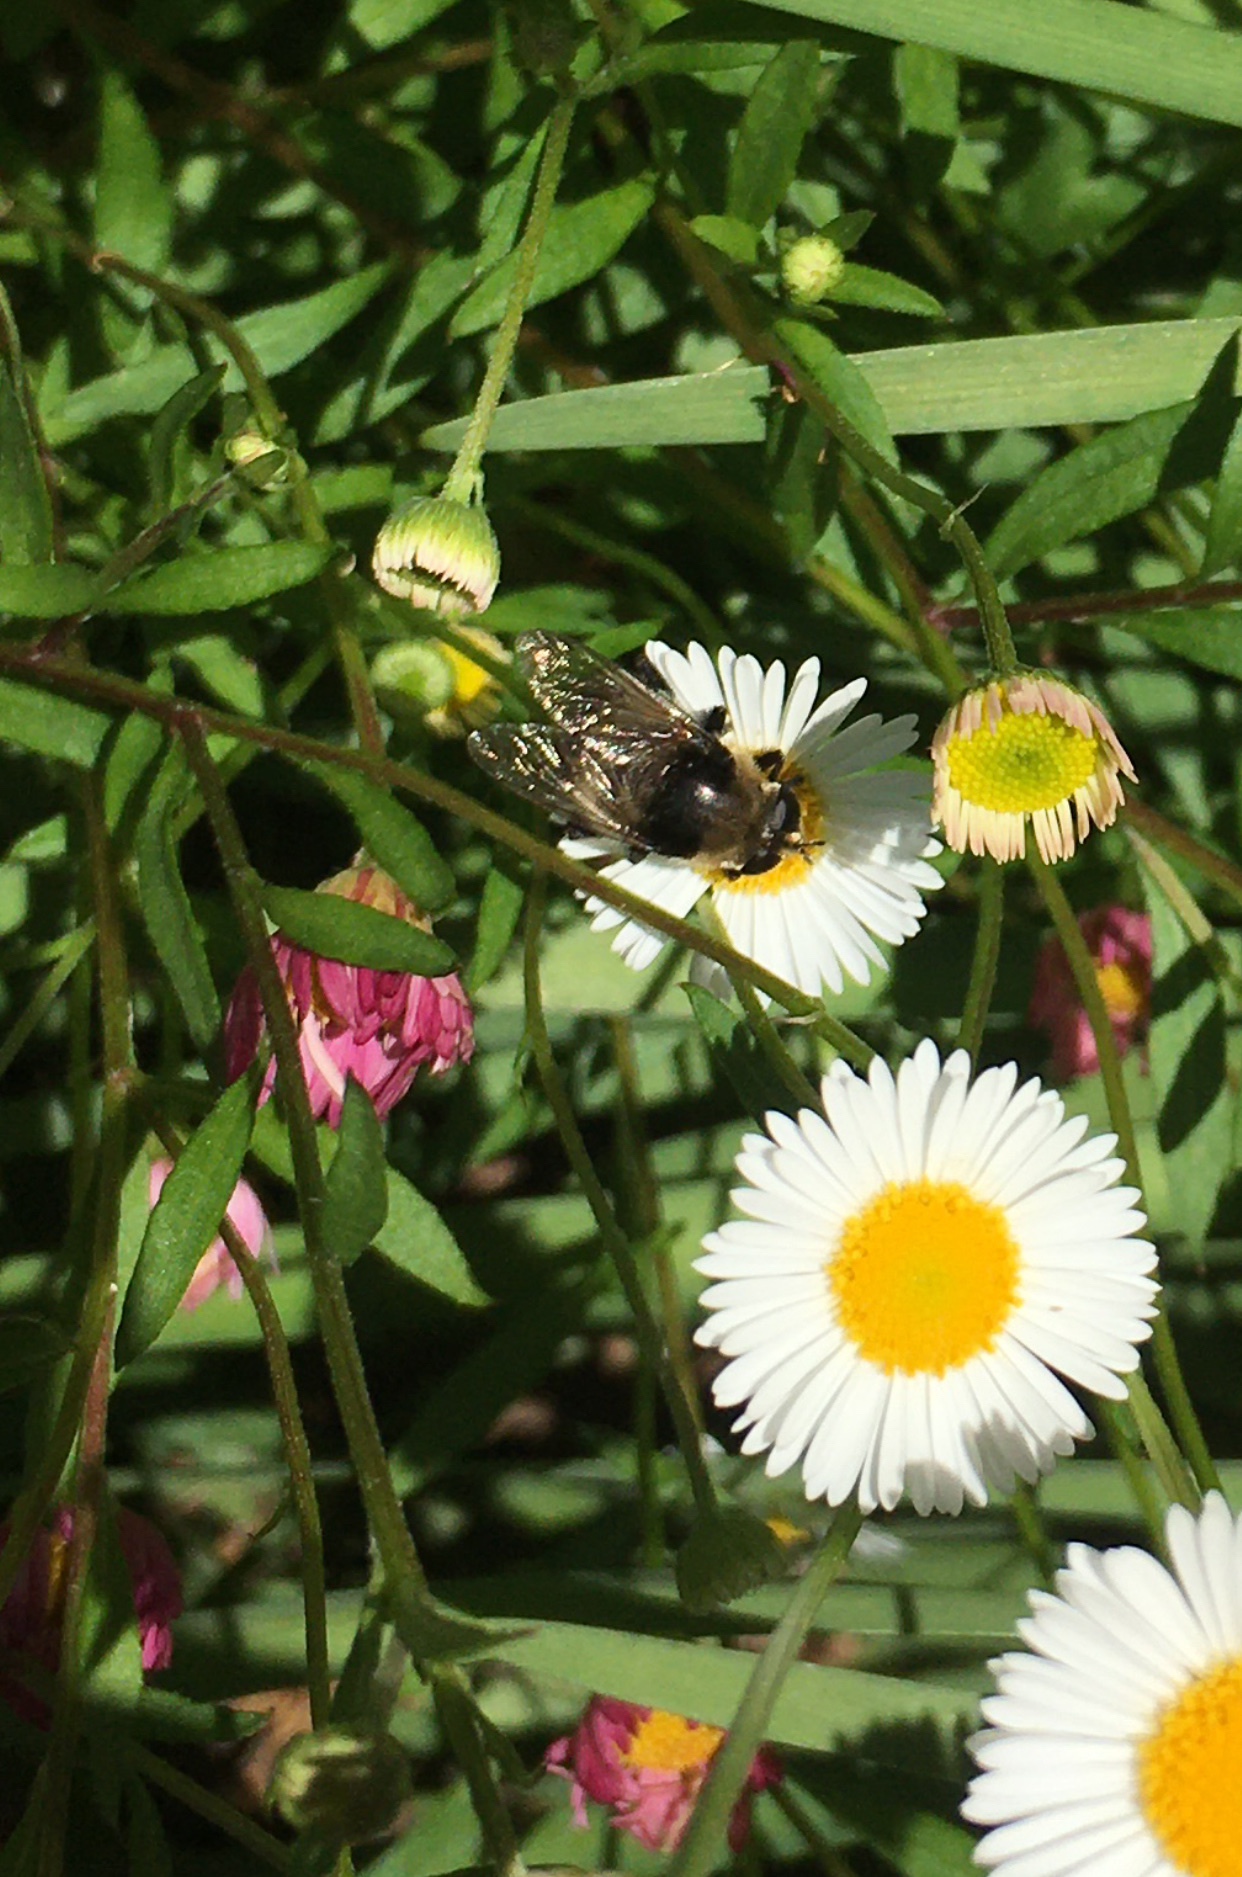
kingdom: Animalia
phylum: Arthropoda
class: Insecta
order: Diptera
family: Syrphidae
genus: Merodon
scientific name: Merodon equestris
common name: Greater bulb-fly
